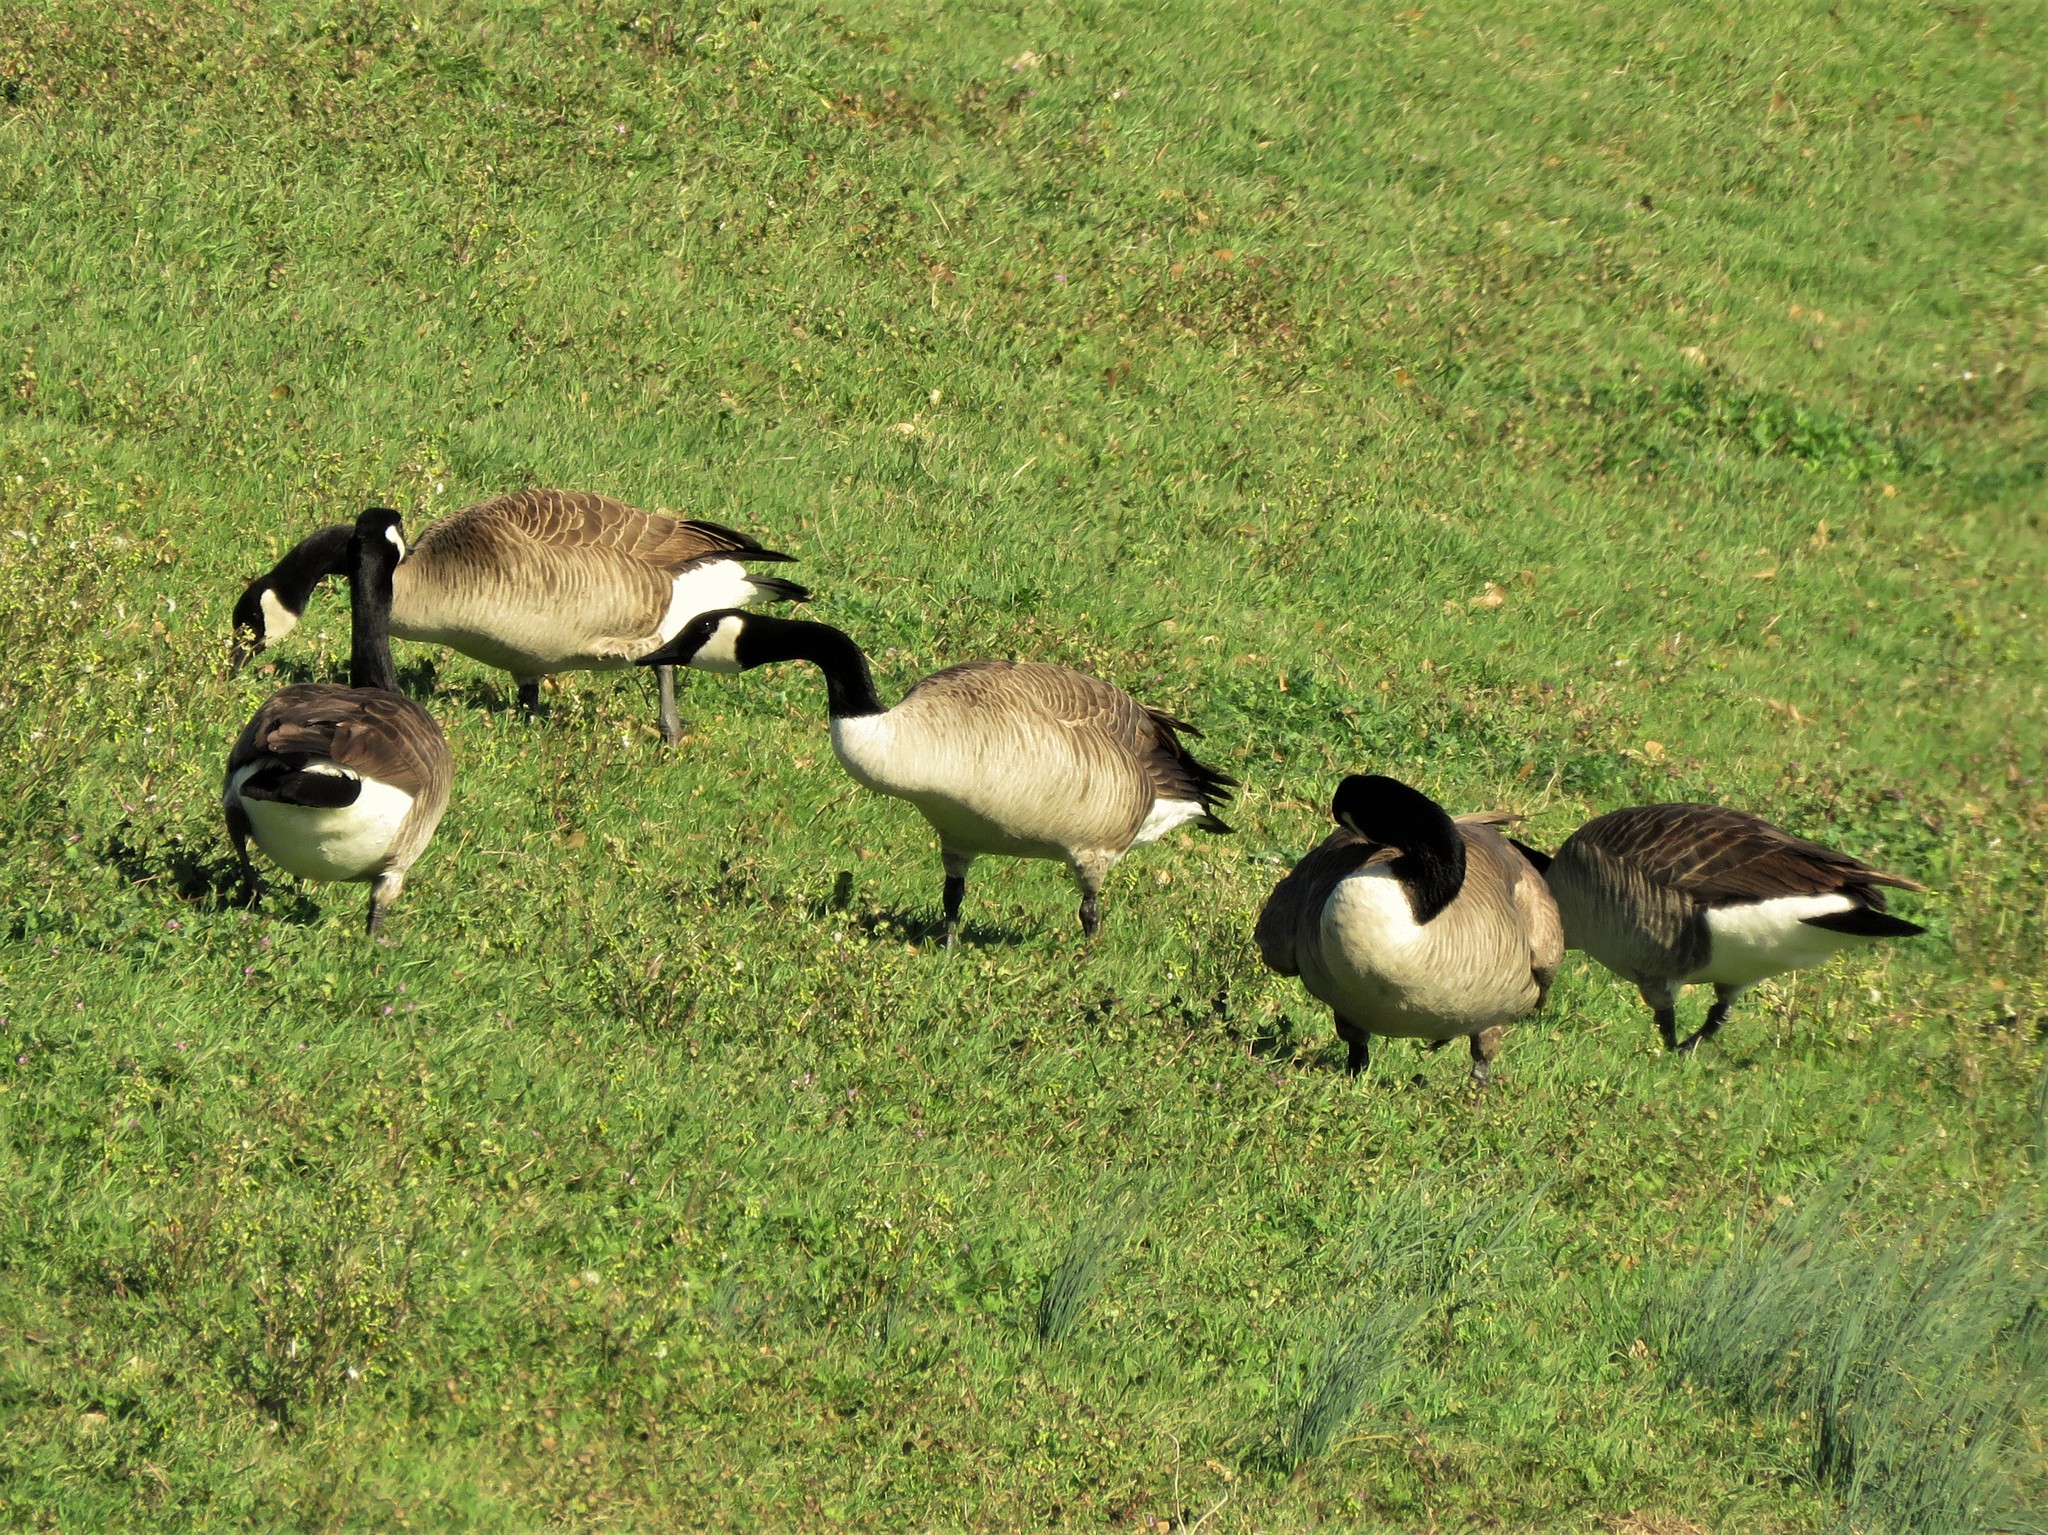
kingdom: Animalia
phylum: Chordata
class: Aves
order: Anseriformes
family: Anatidae
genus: Branta
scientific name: Branta canadensis
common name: Canada goose
